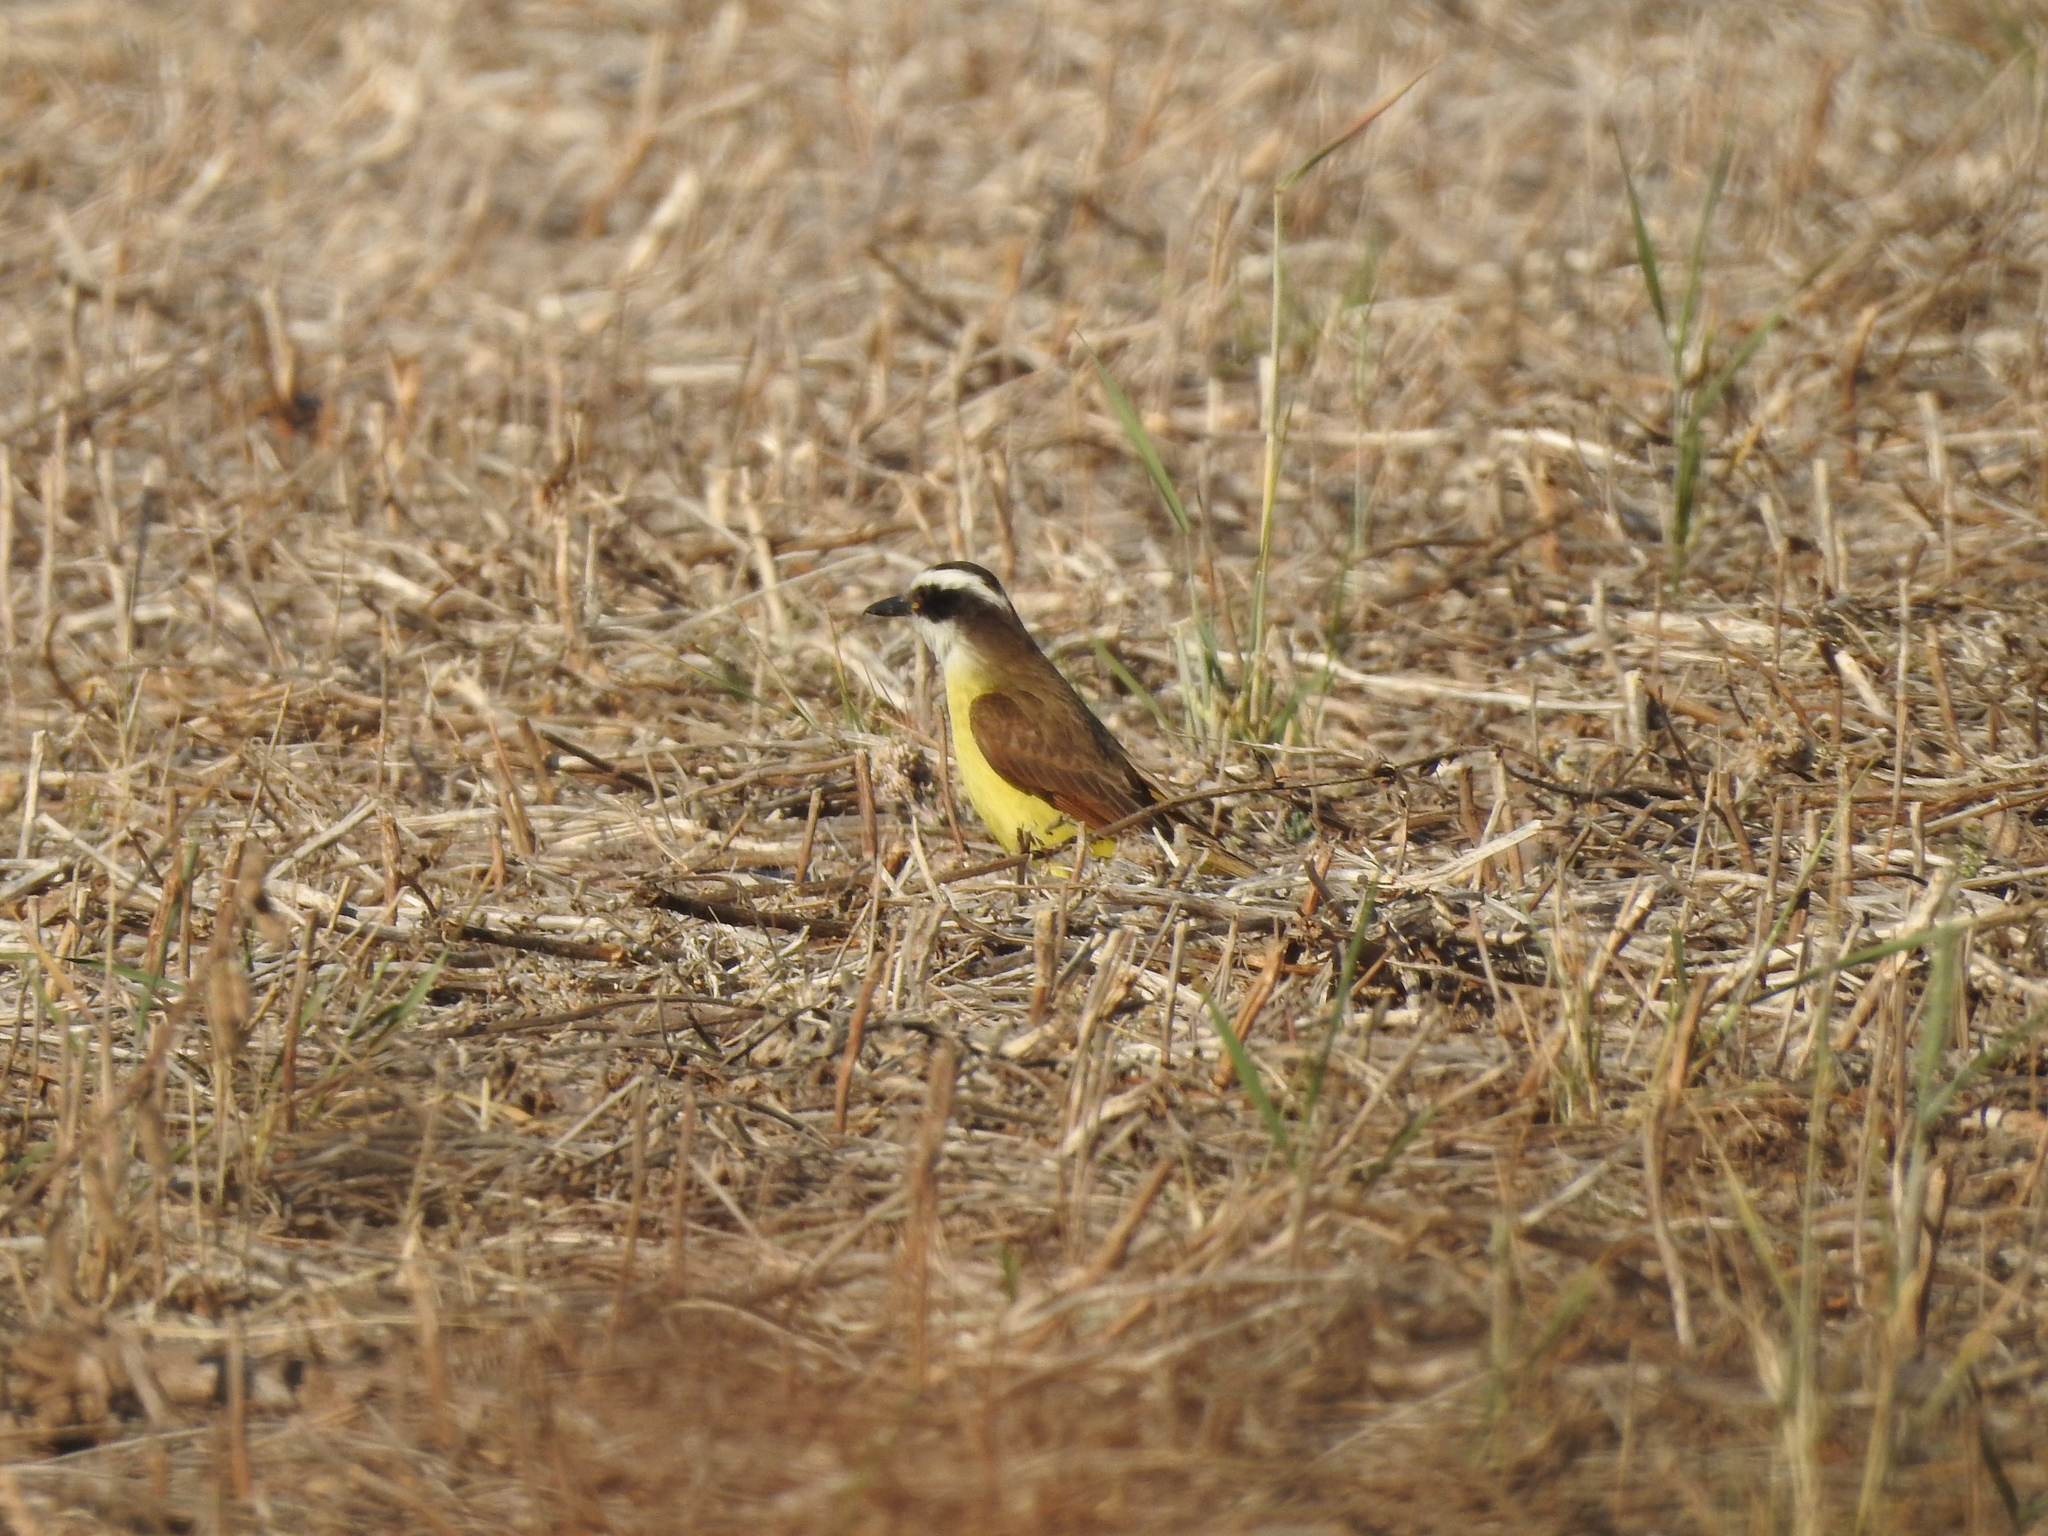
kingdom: Animalia
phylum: Chordata
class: Aves
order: Passeriformes
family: Tyrannidae
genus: Pitangus
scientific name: Pitangus sulphuratus
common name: Great kiskadee
